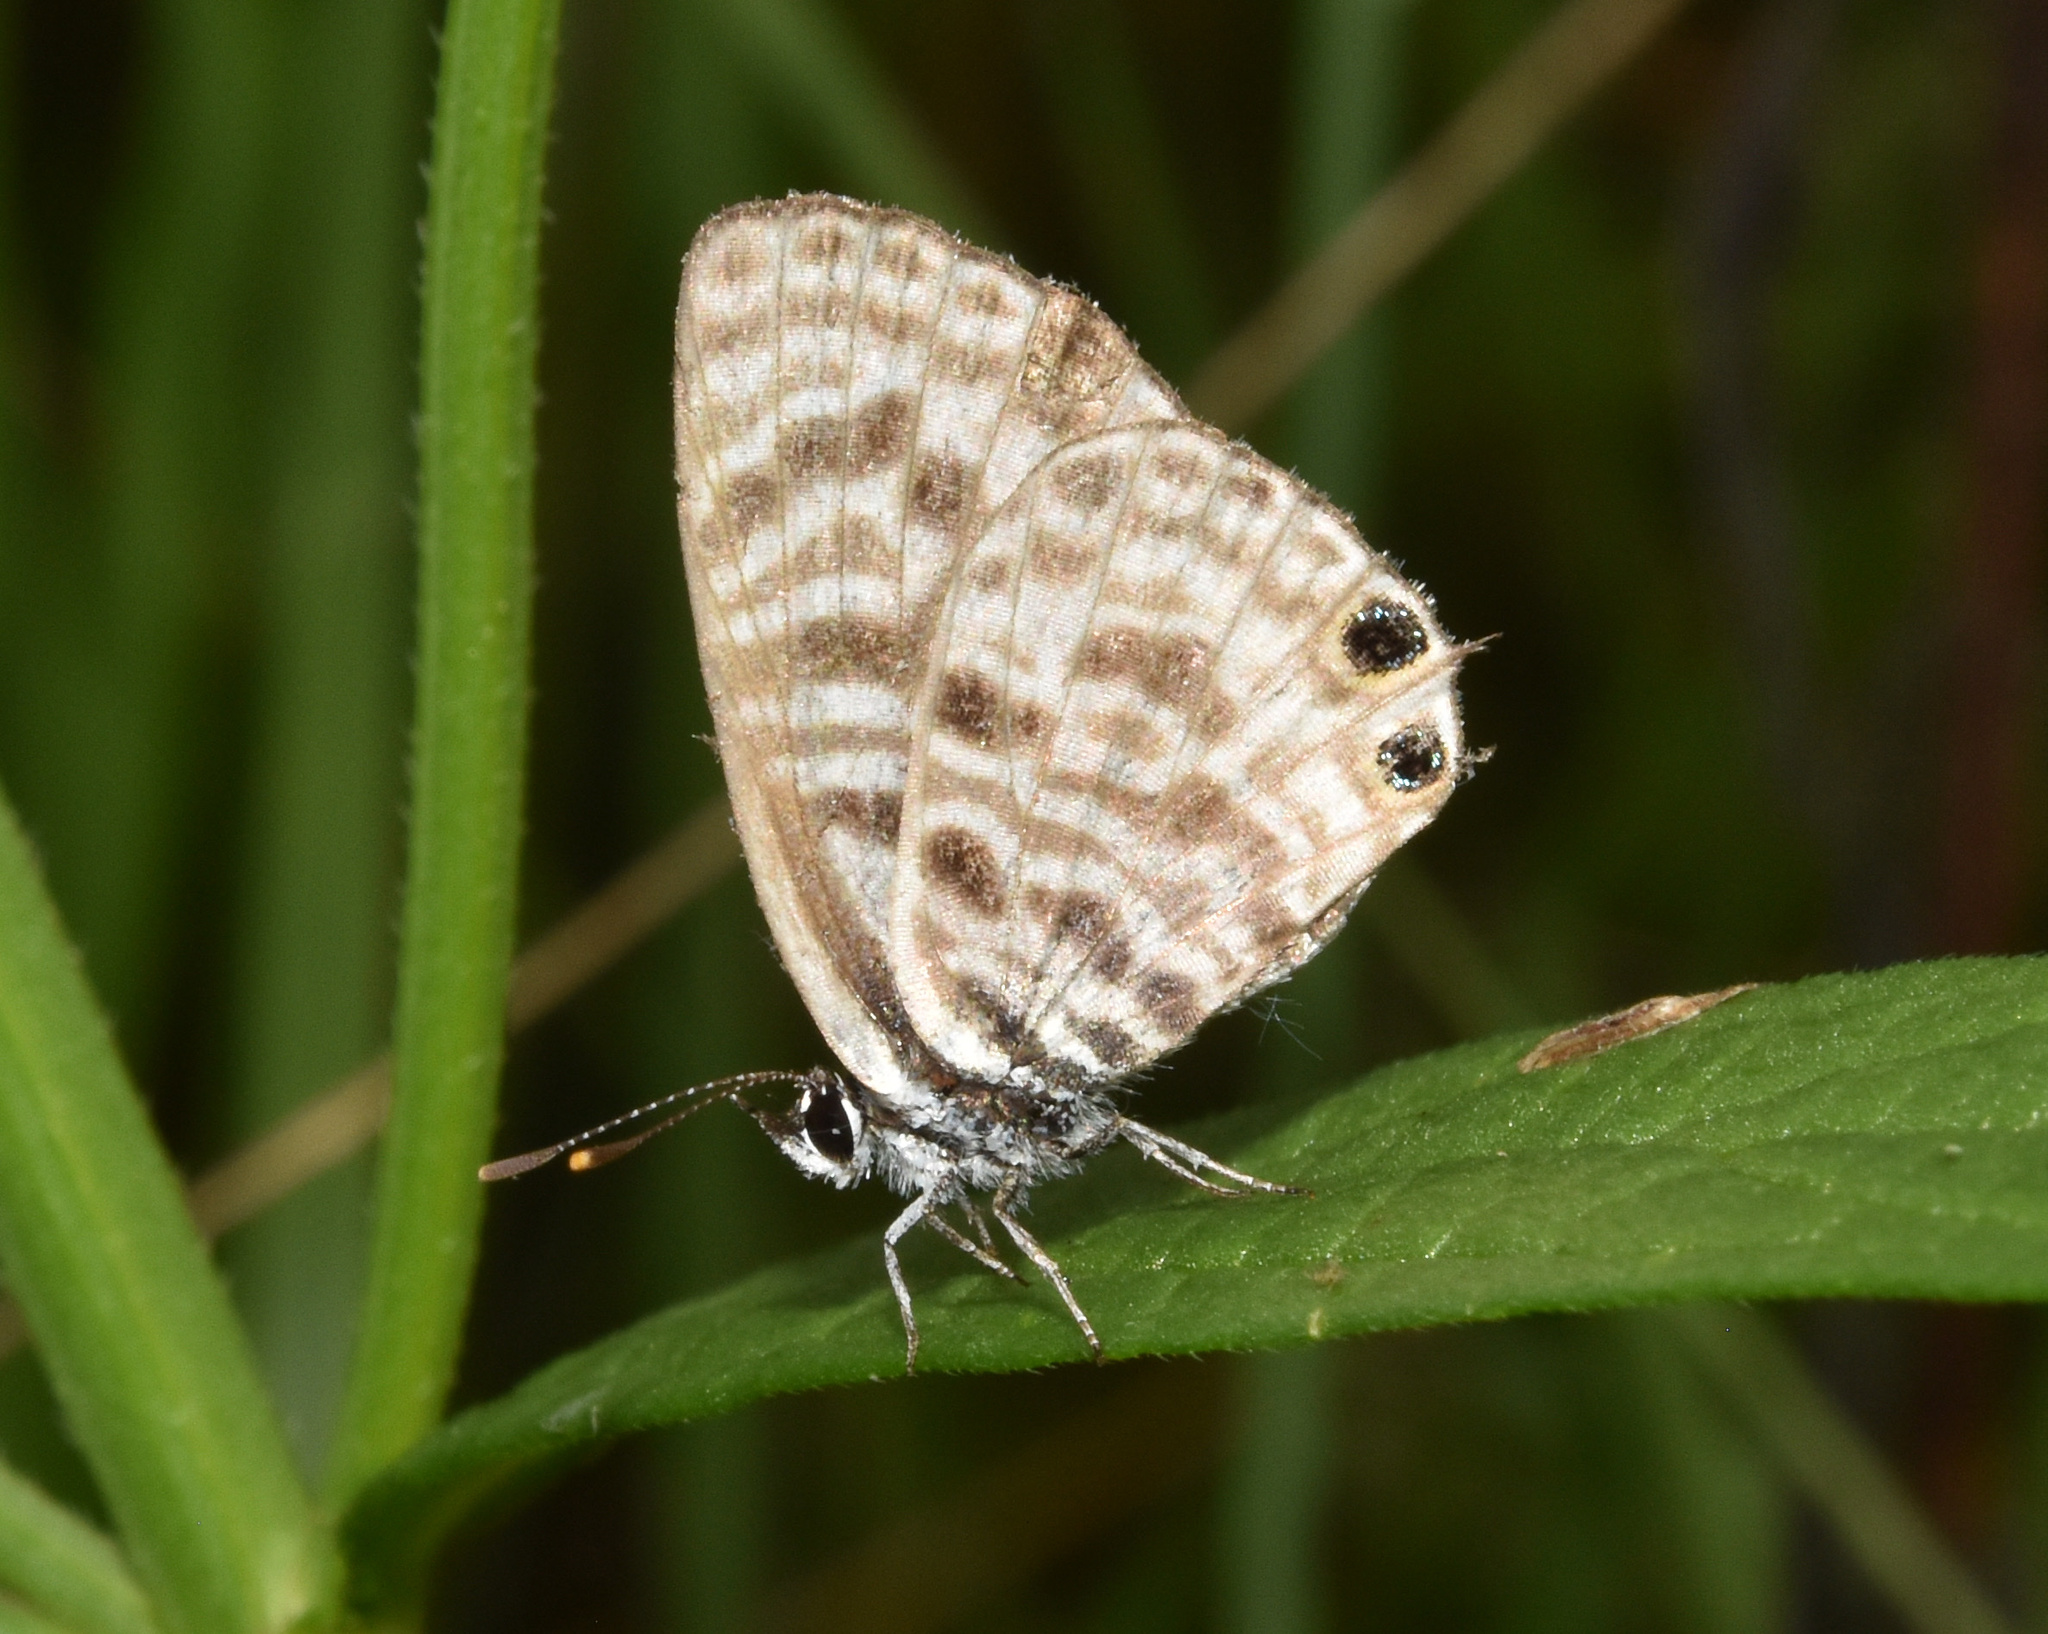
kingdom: Animalia
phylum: Arthropoda
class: Insecta
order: Lepidoptera
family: Lycaenidae
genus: Leptotes
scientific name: Leptotes
